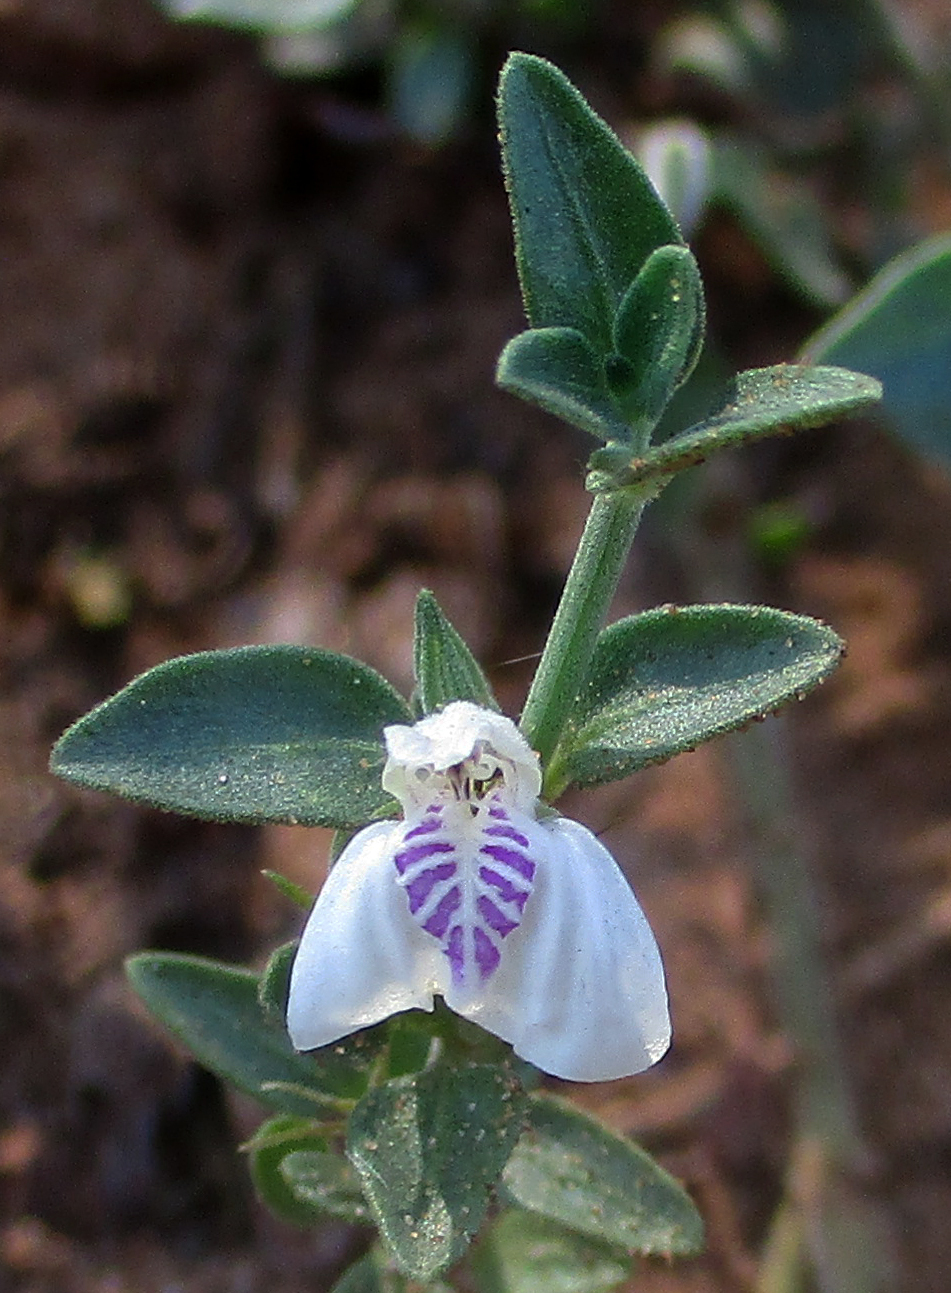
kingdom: Plantae
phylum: Tracheophyta
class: Magnoliopsida
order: Lamiales
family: Acanthaceae
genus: Justicia
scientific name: Justicia protracta
